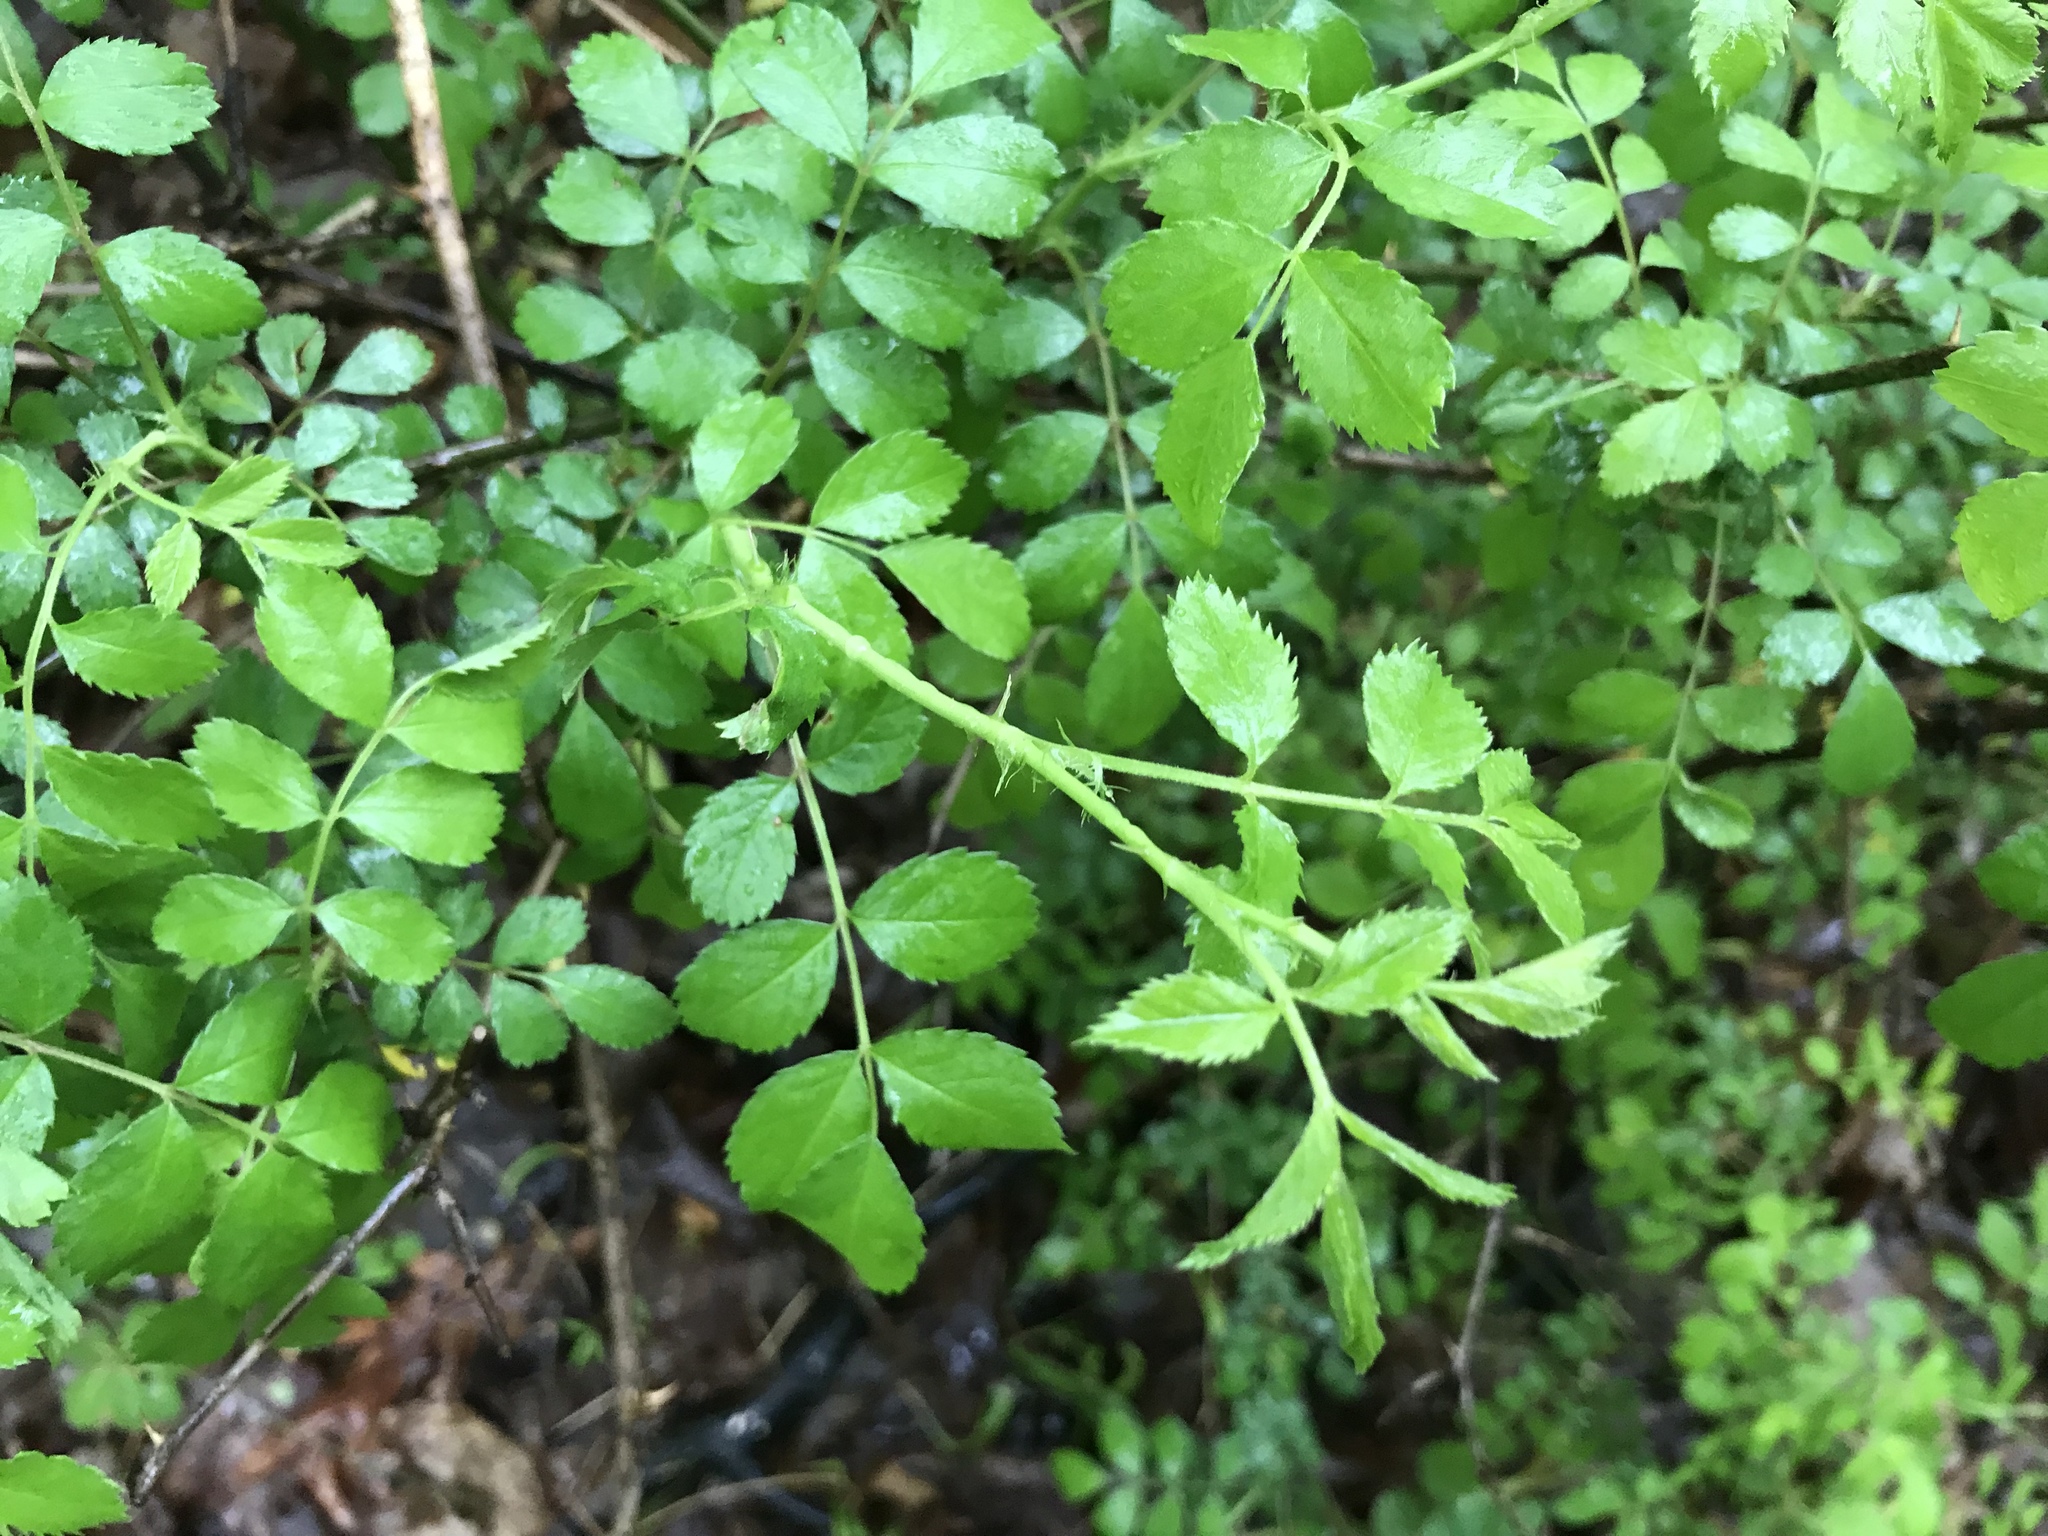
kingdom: Plantae
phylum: Tracheophyta
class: Magnoliopsida
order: Rosales
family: Rosaceae
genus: Rosa
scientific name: Rosa multiflora
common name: Multiflora rose
